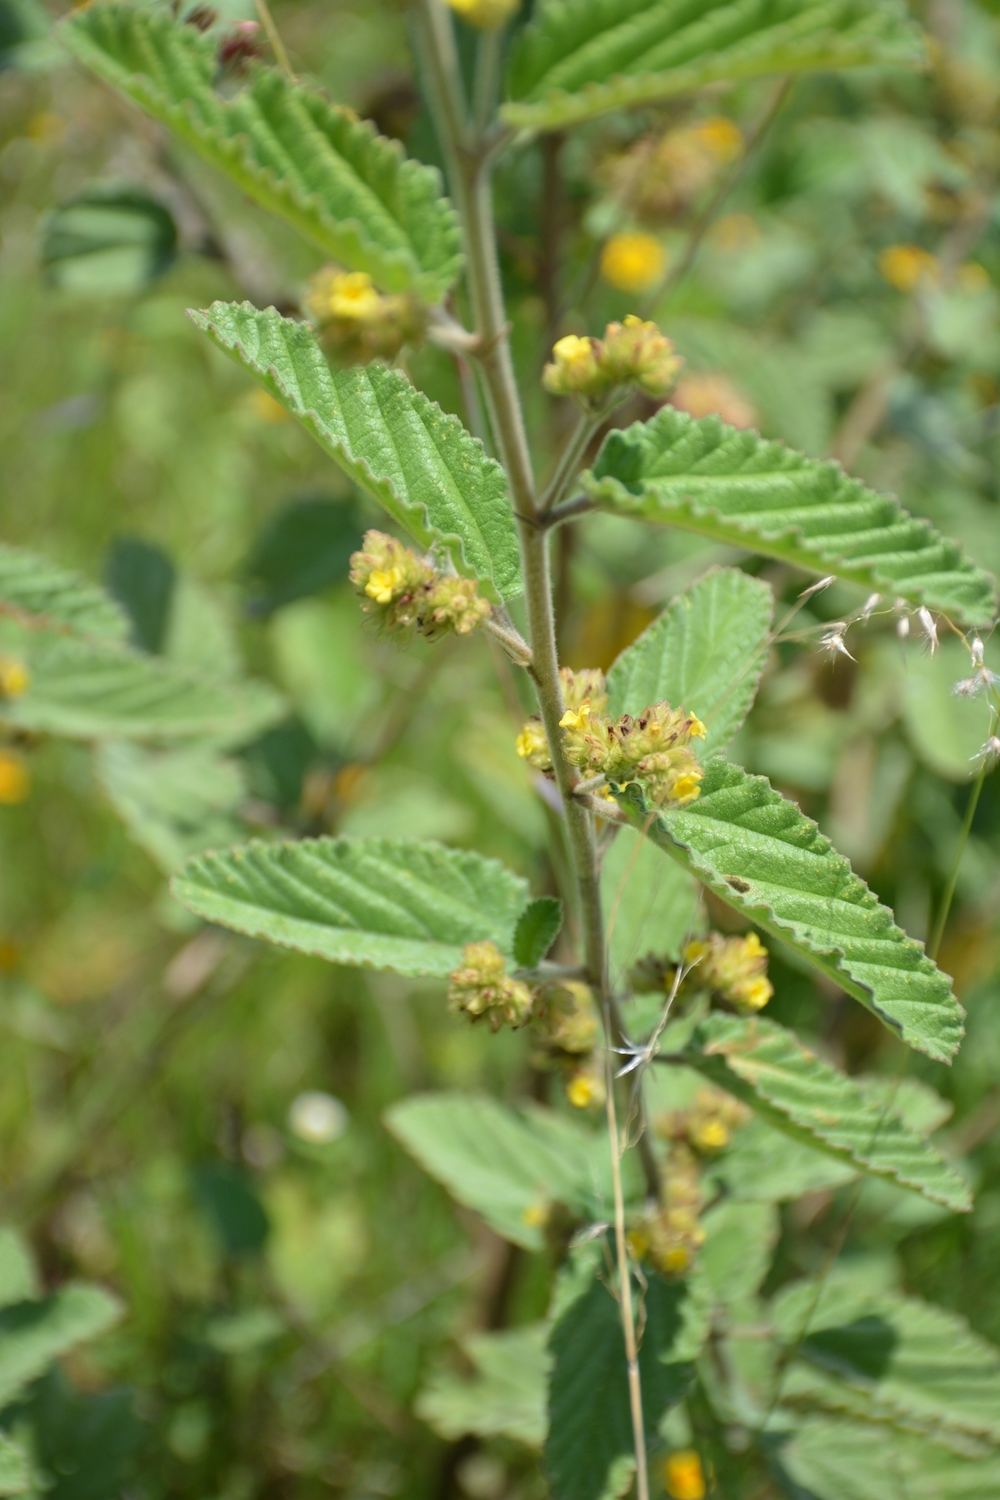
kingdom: Plantae
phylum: Tracheophyta
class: Magnoliopsida
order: Malvales
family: Malvaceae
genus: Waltheria
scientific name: Waltheria indica
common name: Leather-coat
